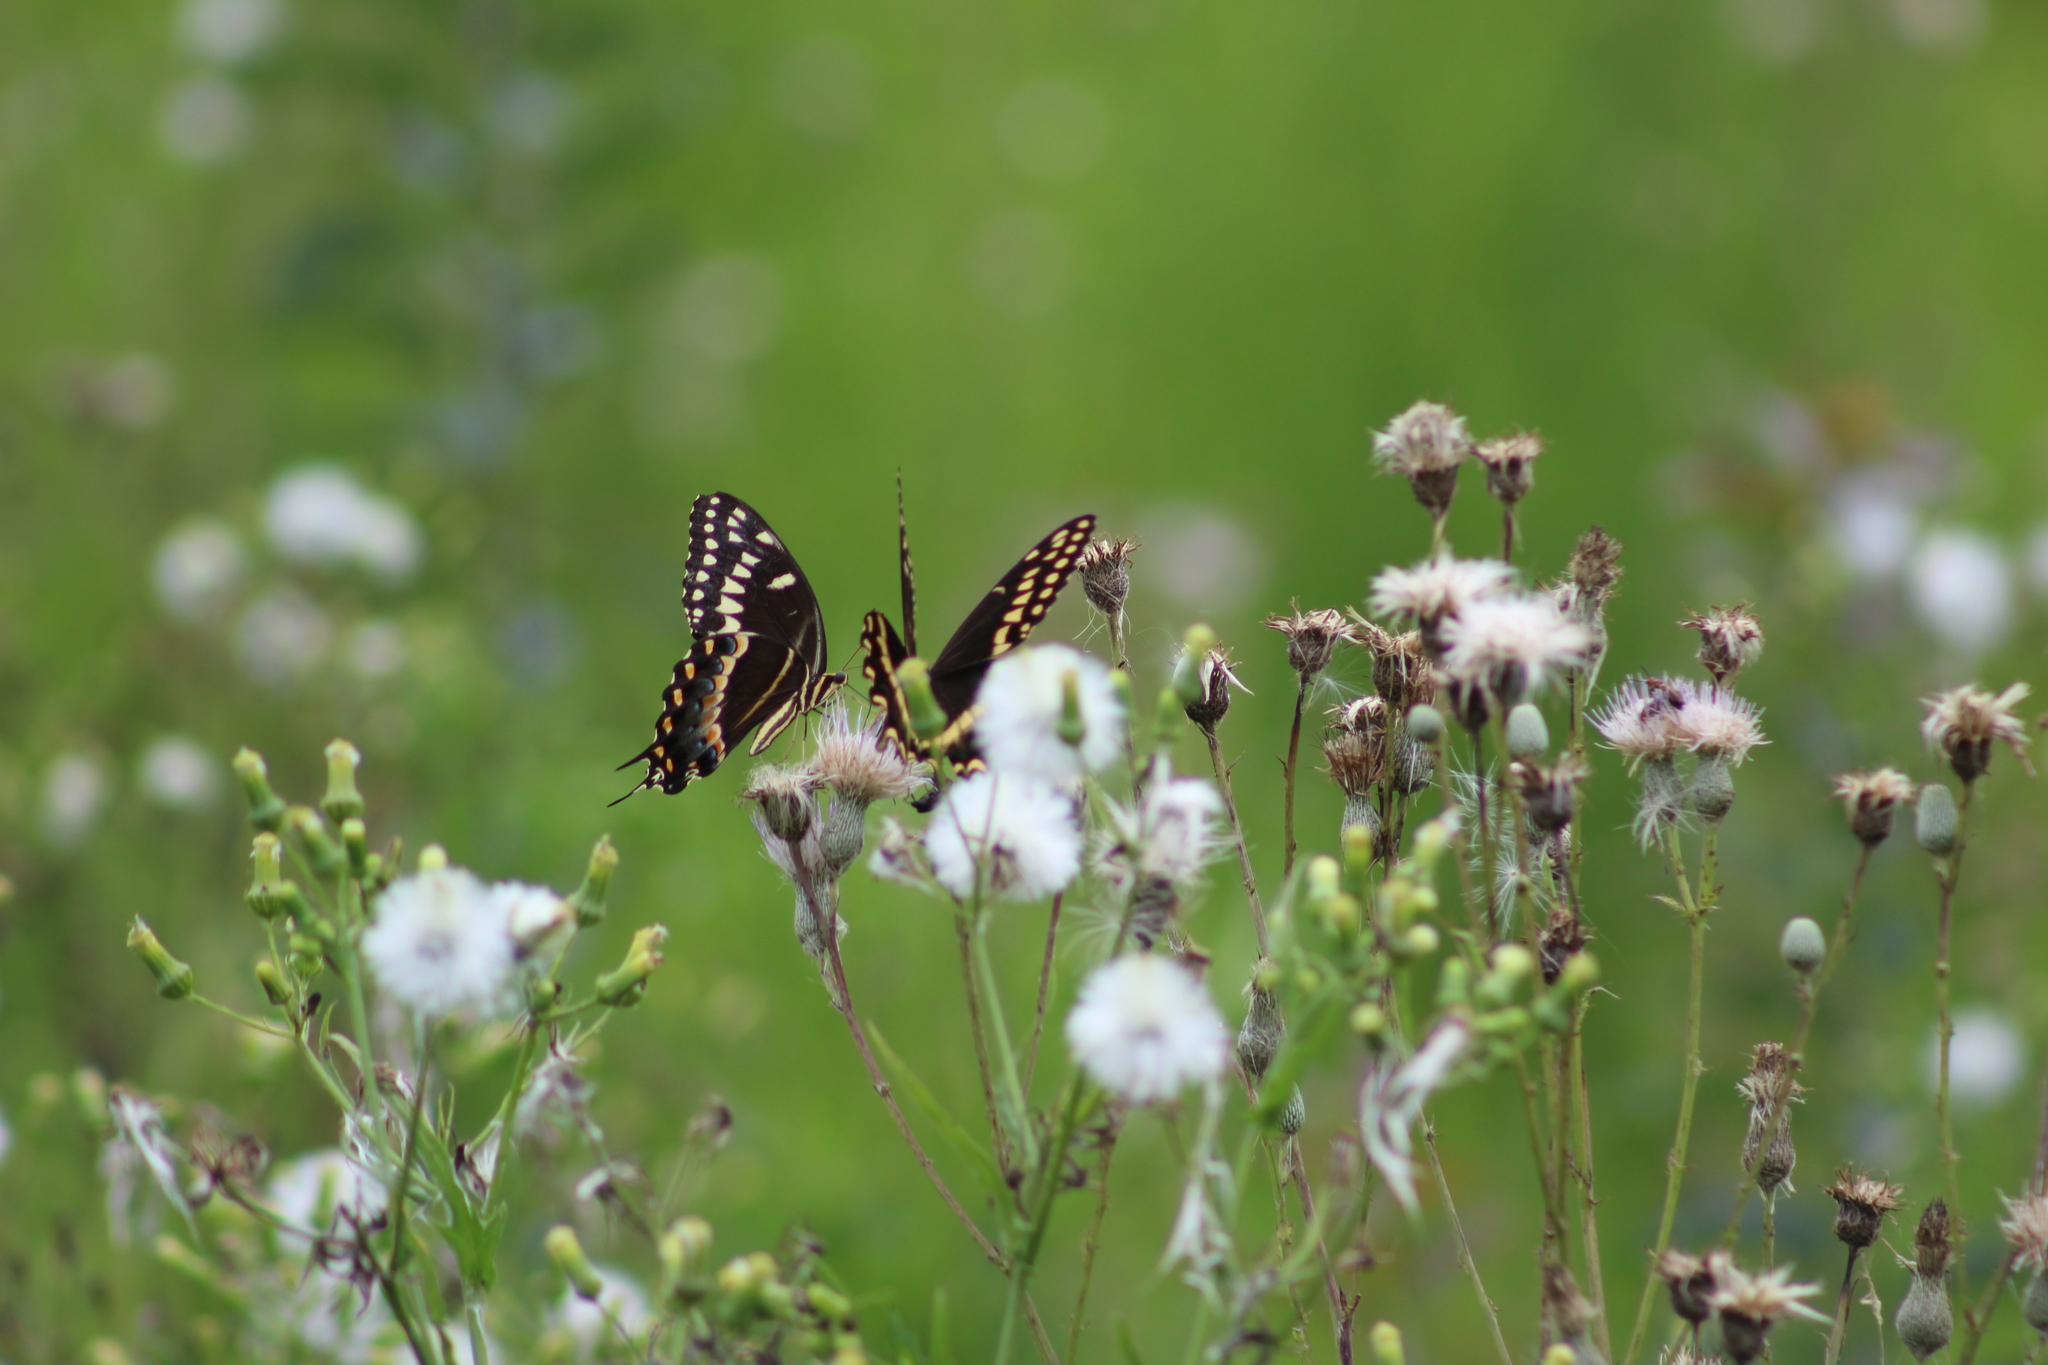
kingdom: Animalia
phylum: Arthropoda
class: Insecta
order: Lepidoptera
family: Papilionidae
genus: Papilio
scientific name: Papilio palamedes
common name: Palamedes swallowtail
